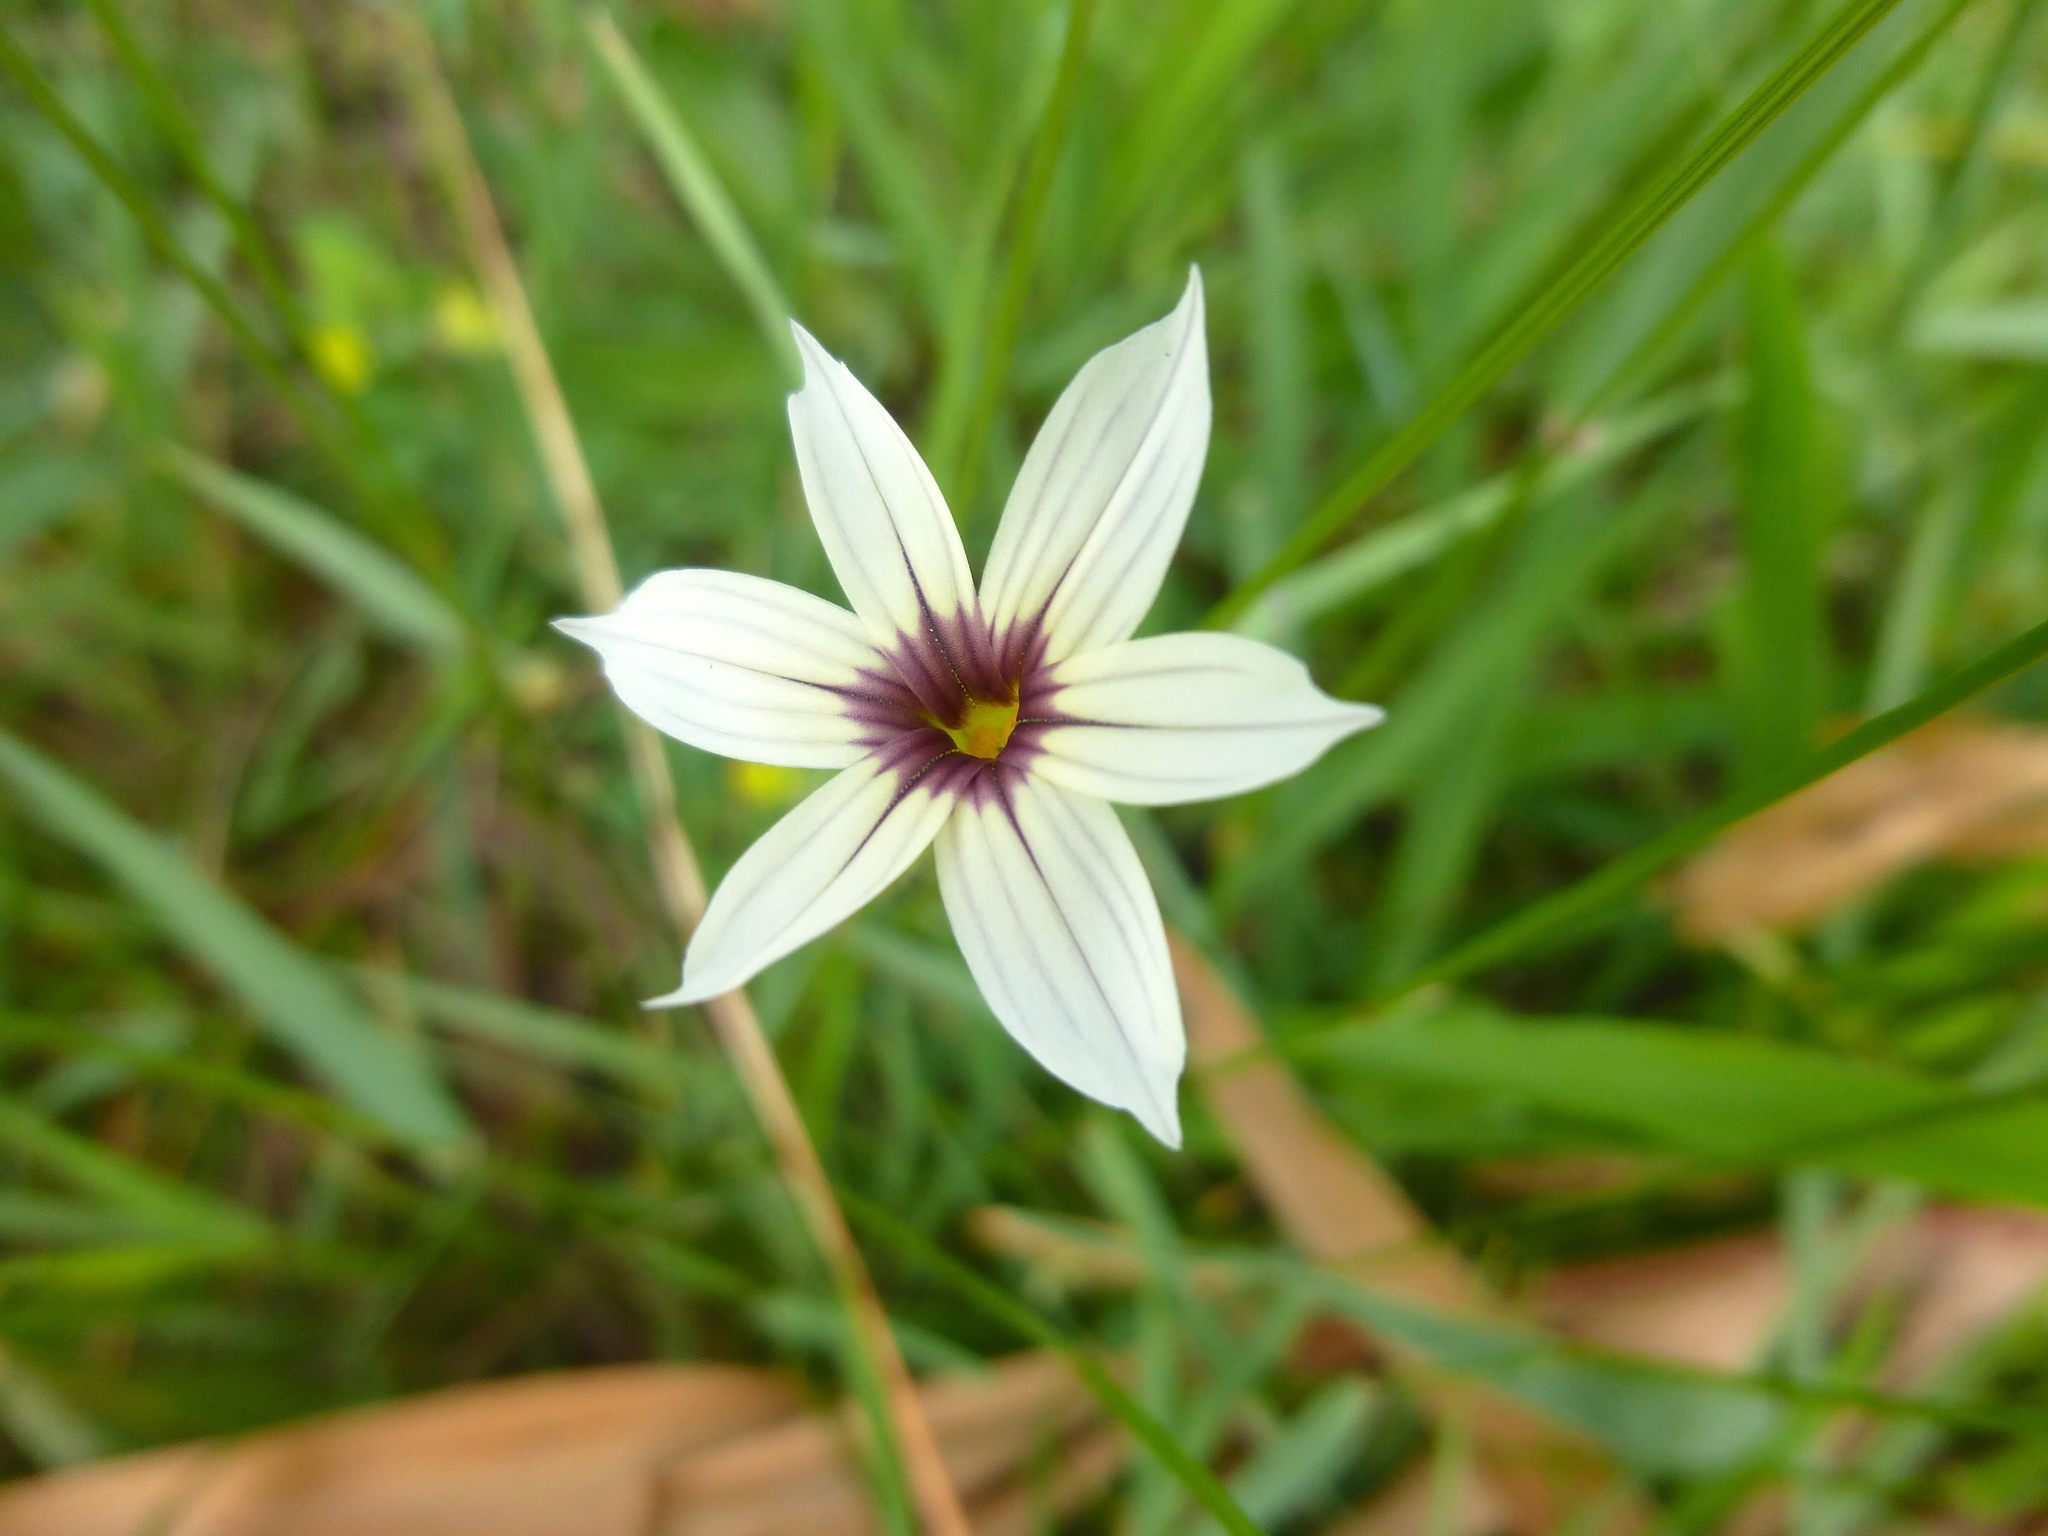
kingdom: Plantae
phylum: Tracheophyta
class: Liliopsida
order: Asparagales
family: Iridaceae
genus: Sisyrinchium
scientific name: Sisyrinchium micranthum
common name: Bermuda pigroot
